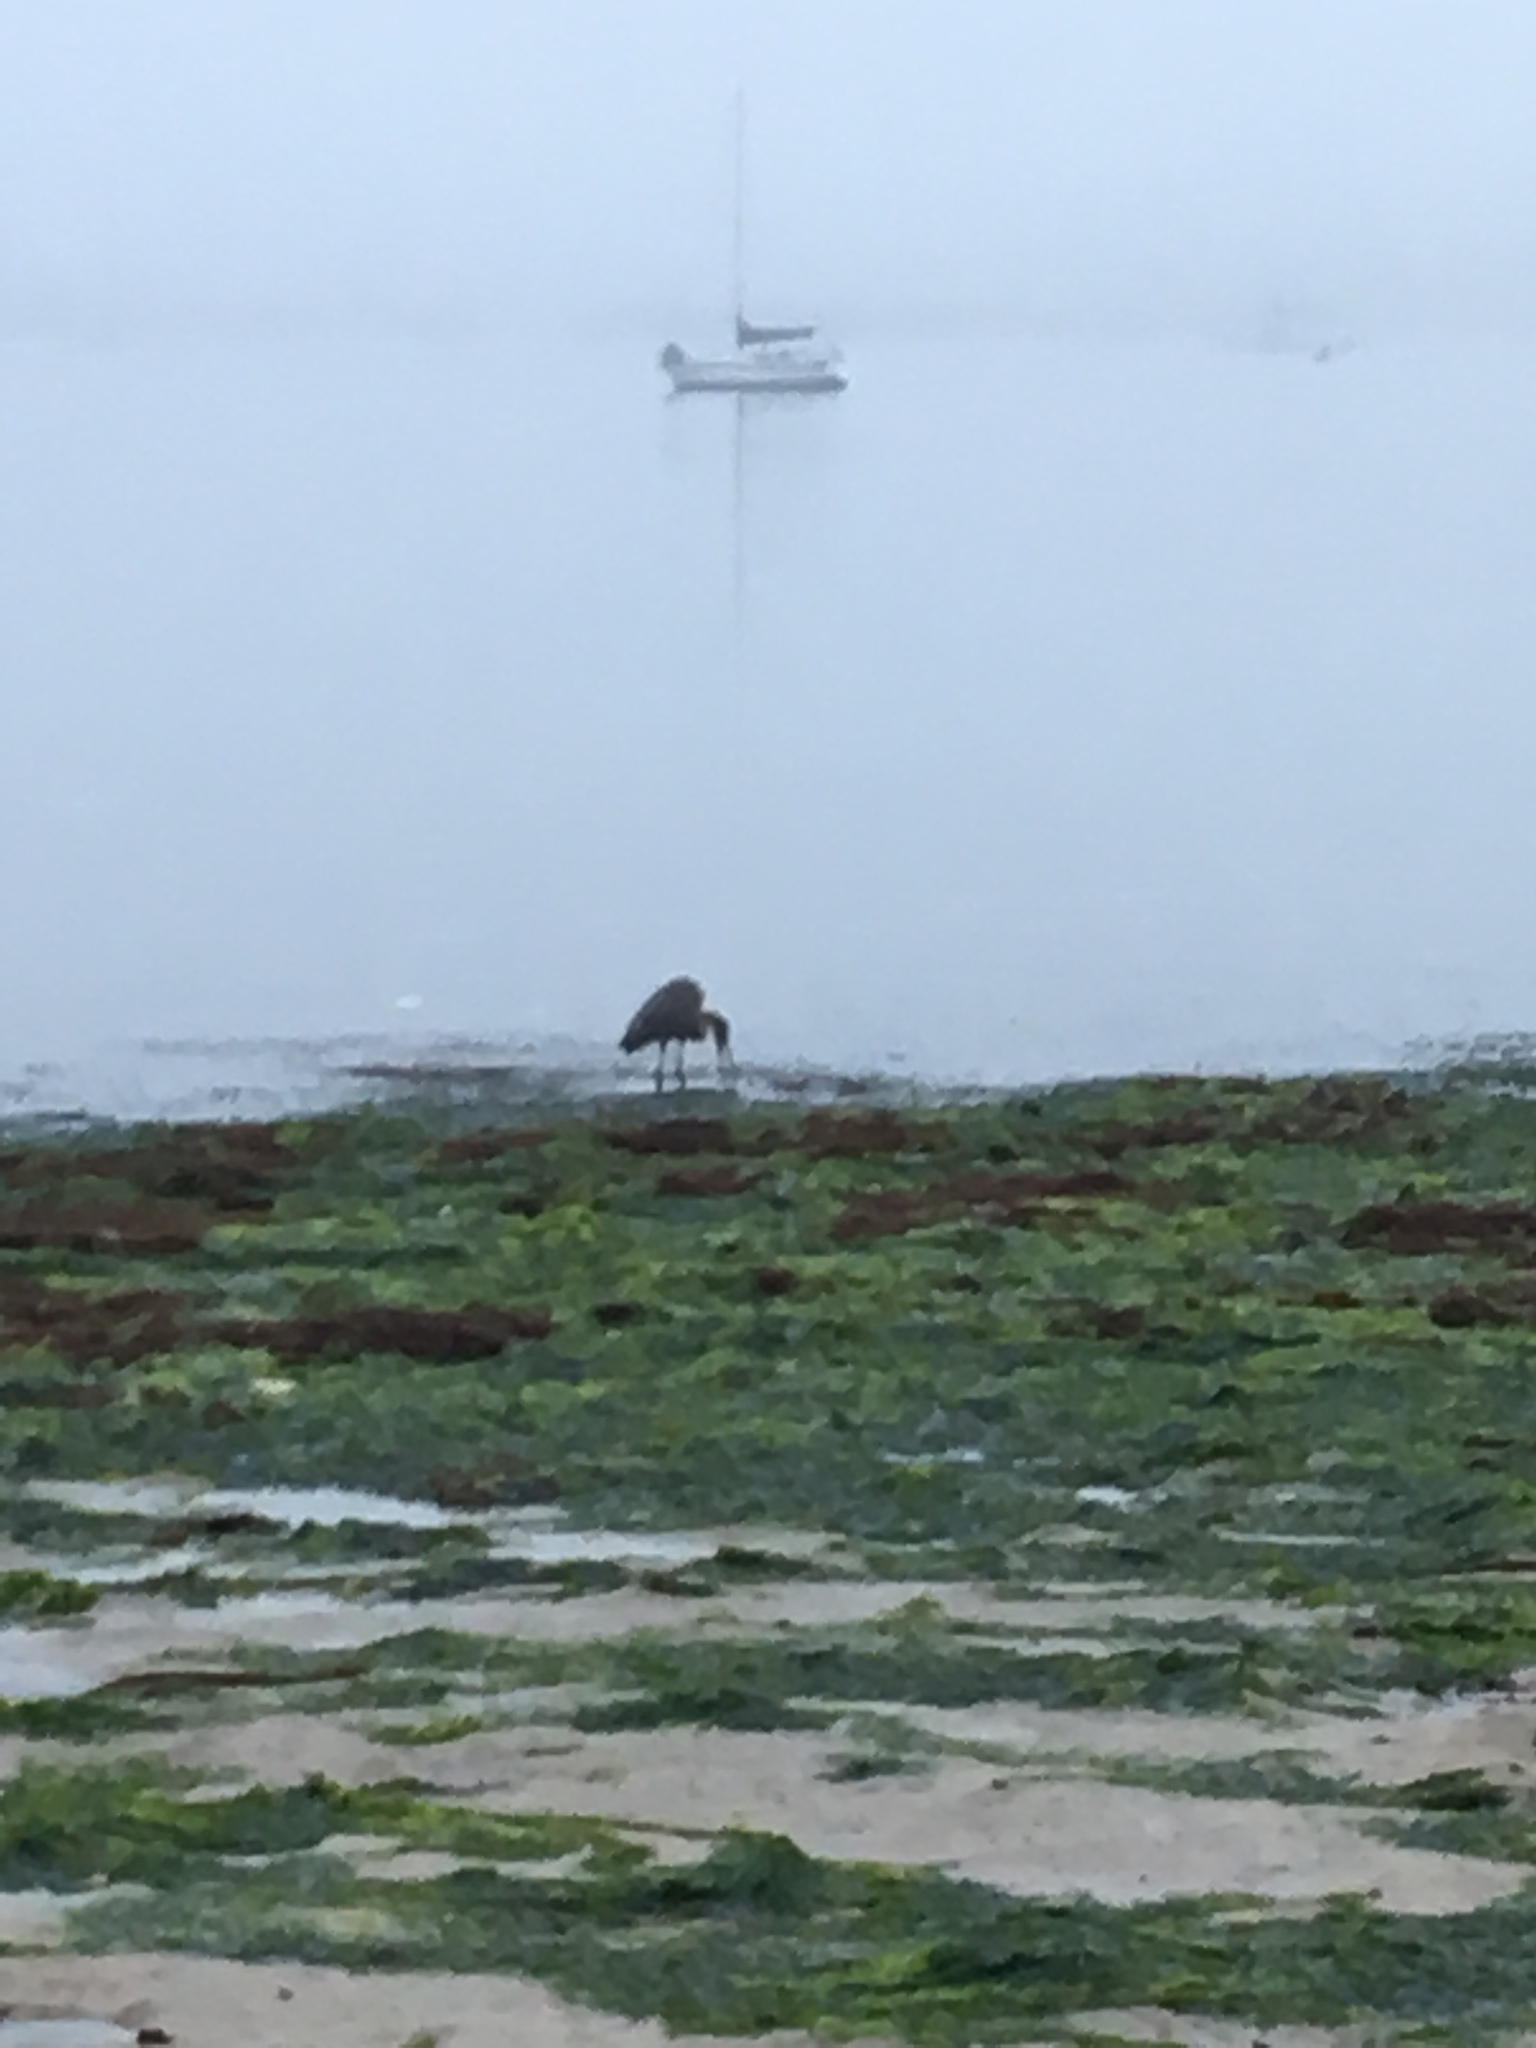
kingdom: Animalia
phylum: Chordata
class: Aves
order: Pelecaniformes
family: Ardeidae
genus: Ardea
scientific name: Ardea herodias
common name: Great blue heron
